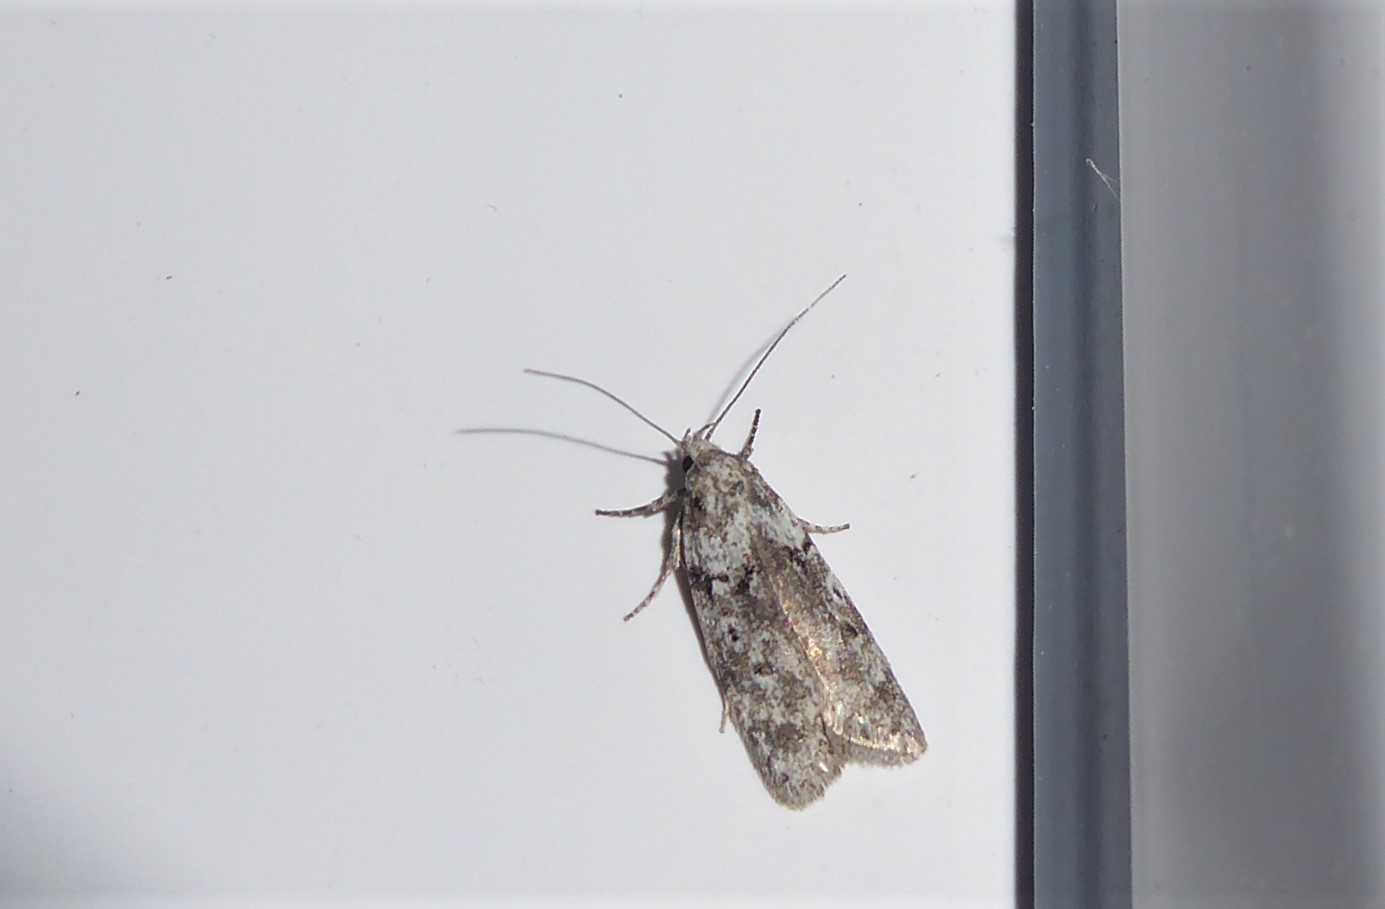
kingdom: Animalia
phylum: Arthropoda
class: Insecta
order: Lepidoptera
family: Oecophoridae
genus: Izatha
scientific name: Izatha convulsella
